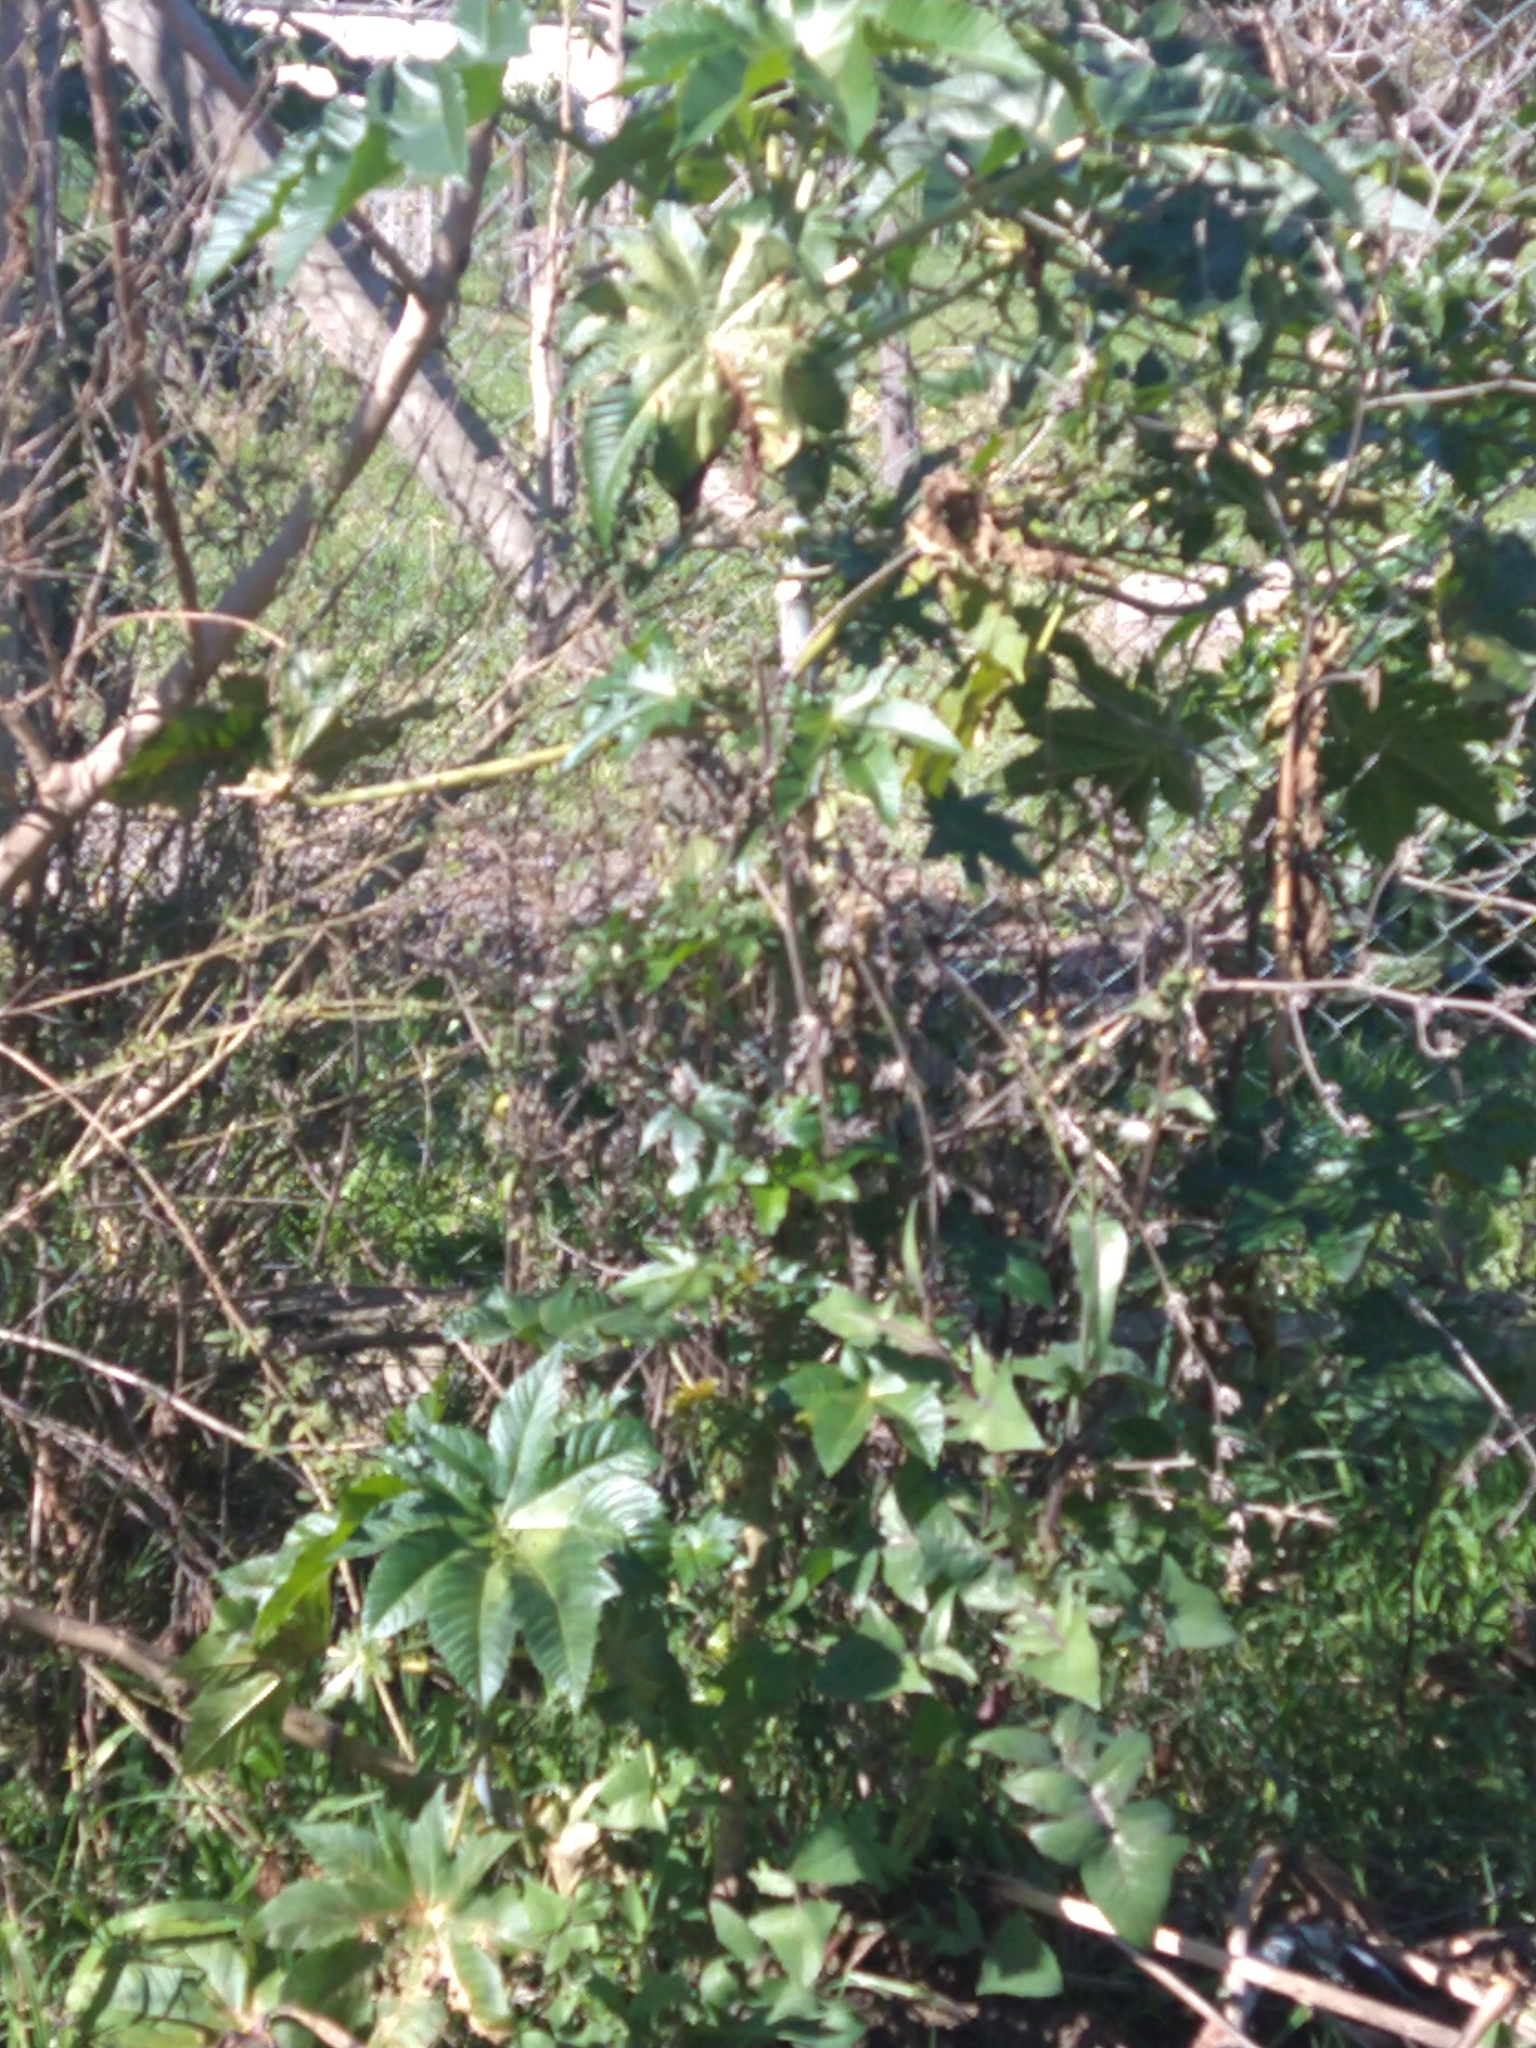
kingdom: Plantae
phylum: Tracheophyta
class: Magnoliopsida
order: Malpighiales
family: Euphorbiaceae
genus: Ricinus
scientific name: Ricinus communis
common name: Castor-oil-plant
